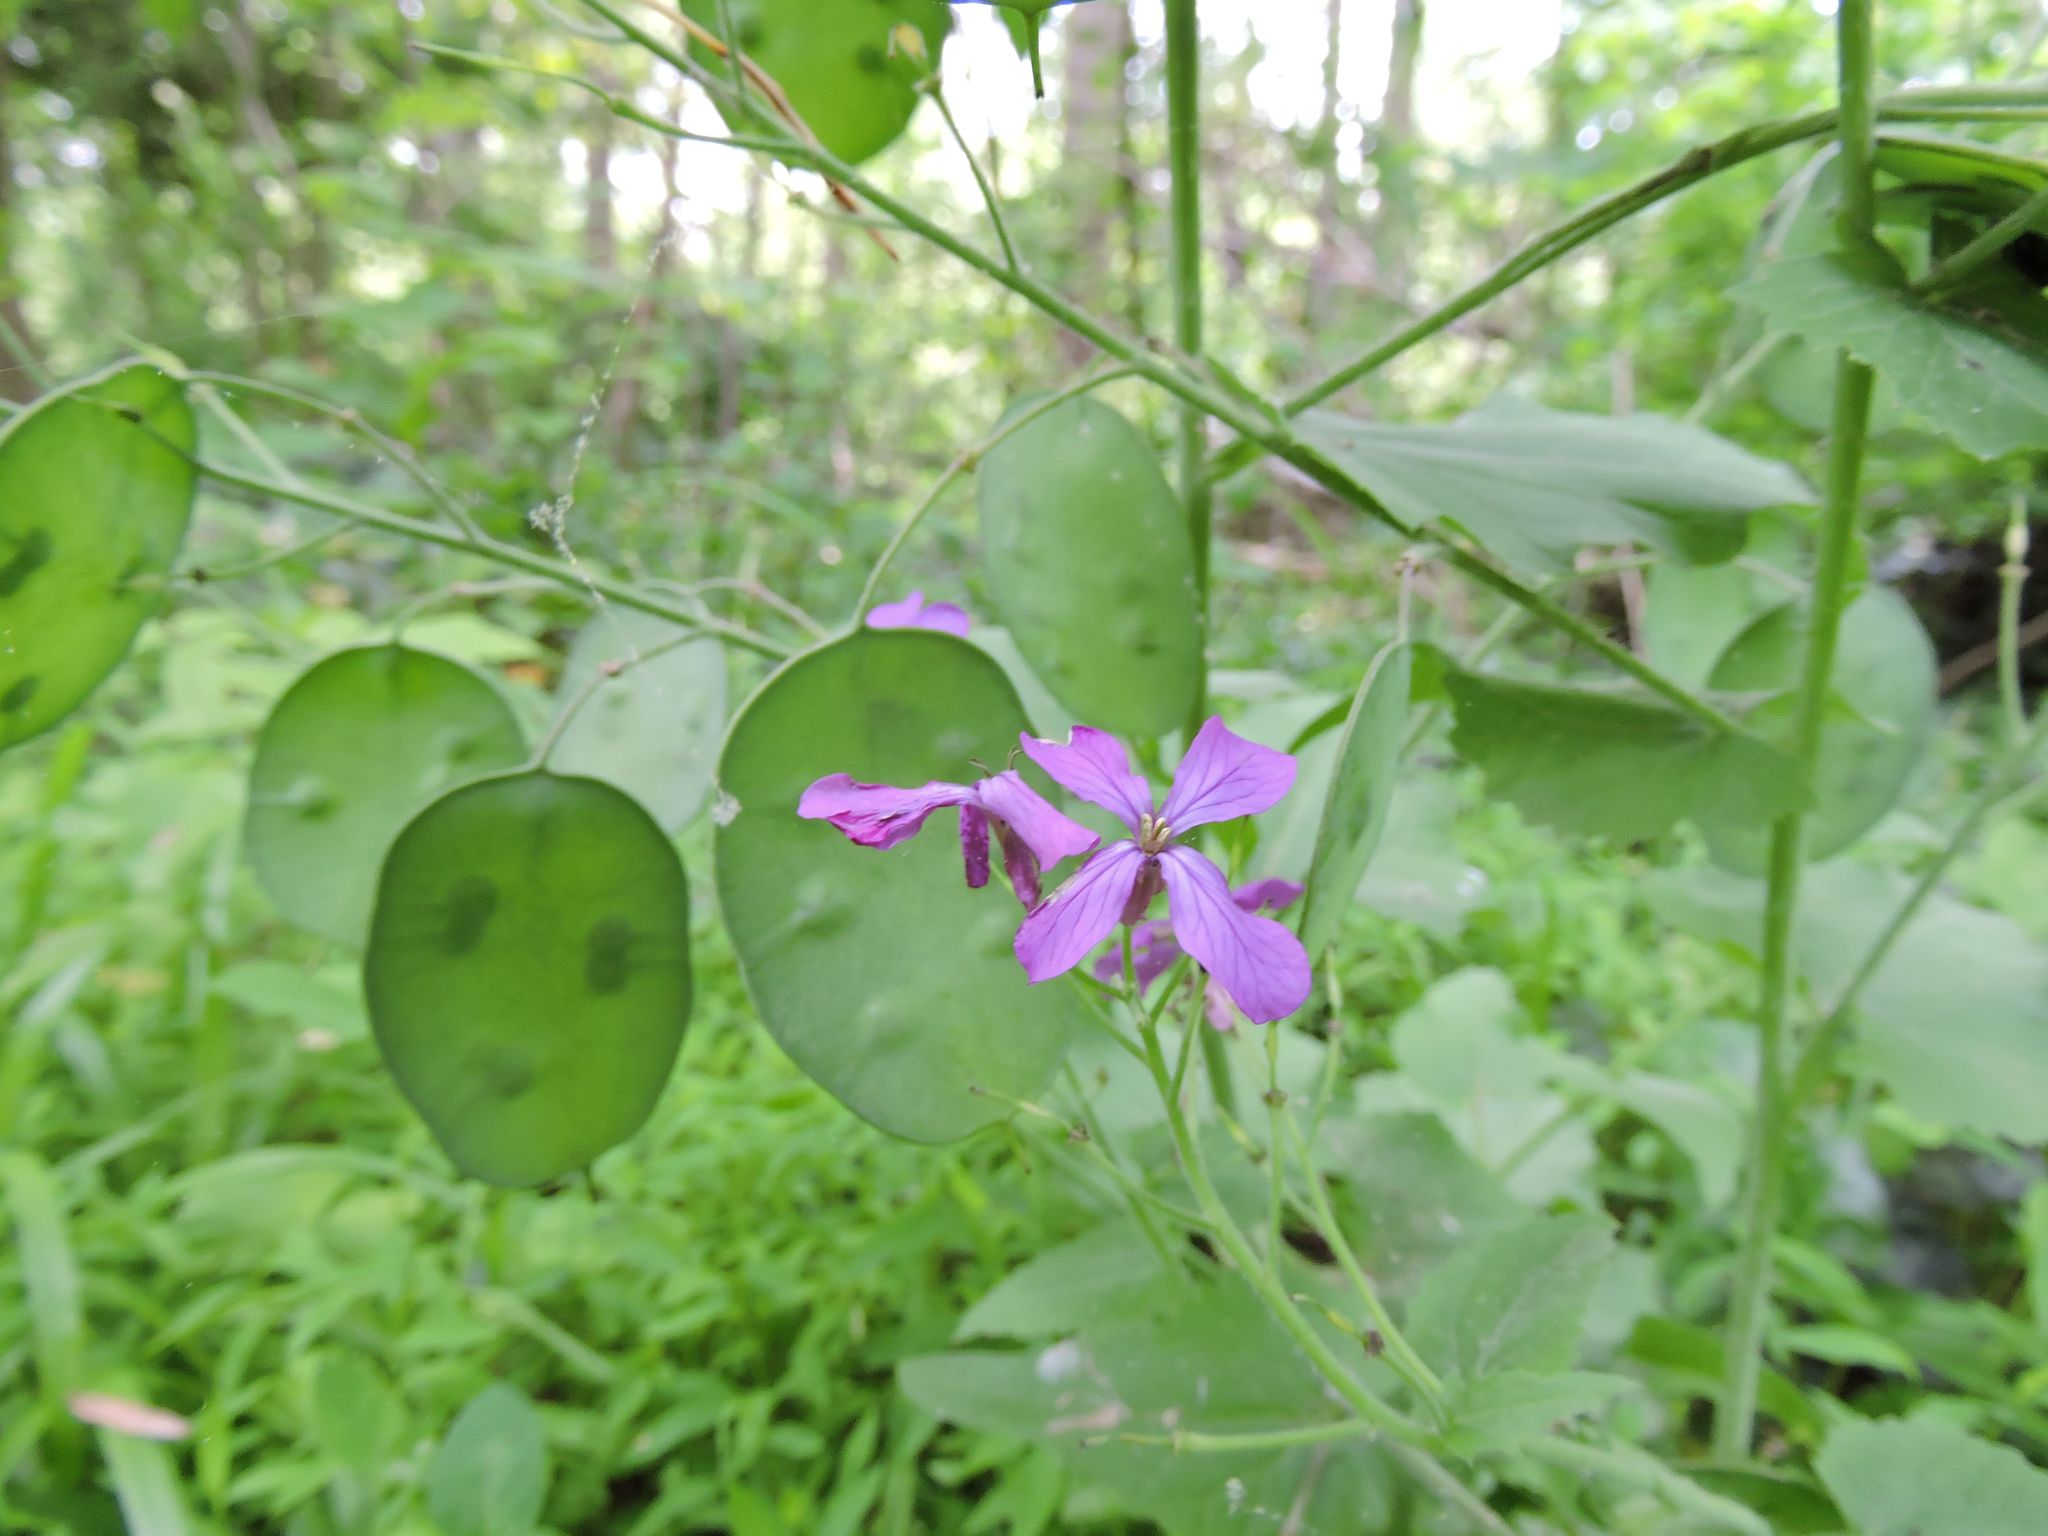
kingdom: Plantae
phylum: Tracheophyta
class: Magnoliopsida
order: Brassicales
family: Brassicaceae
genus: Lunaria
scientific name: Lunaria annua
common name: Honesty
